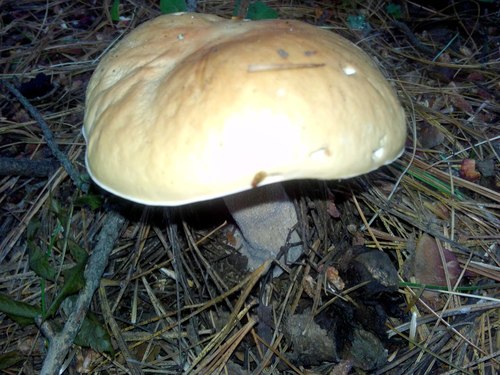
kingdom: Fungi
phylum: Basidiomycota
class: Agaricomycetes
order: Boletales
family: Boletaceae
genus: Boletus
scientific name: Boletus edulis
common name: Cep
